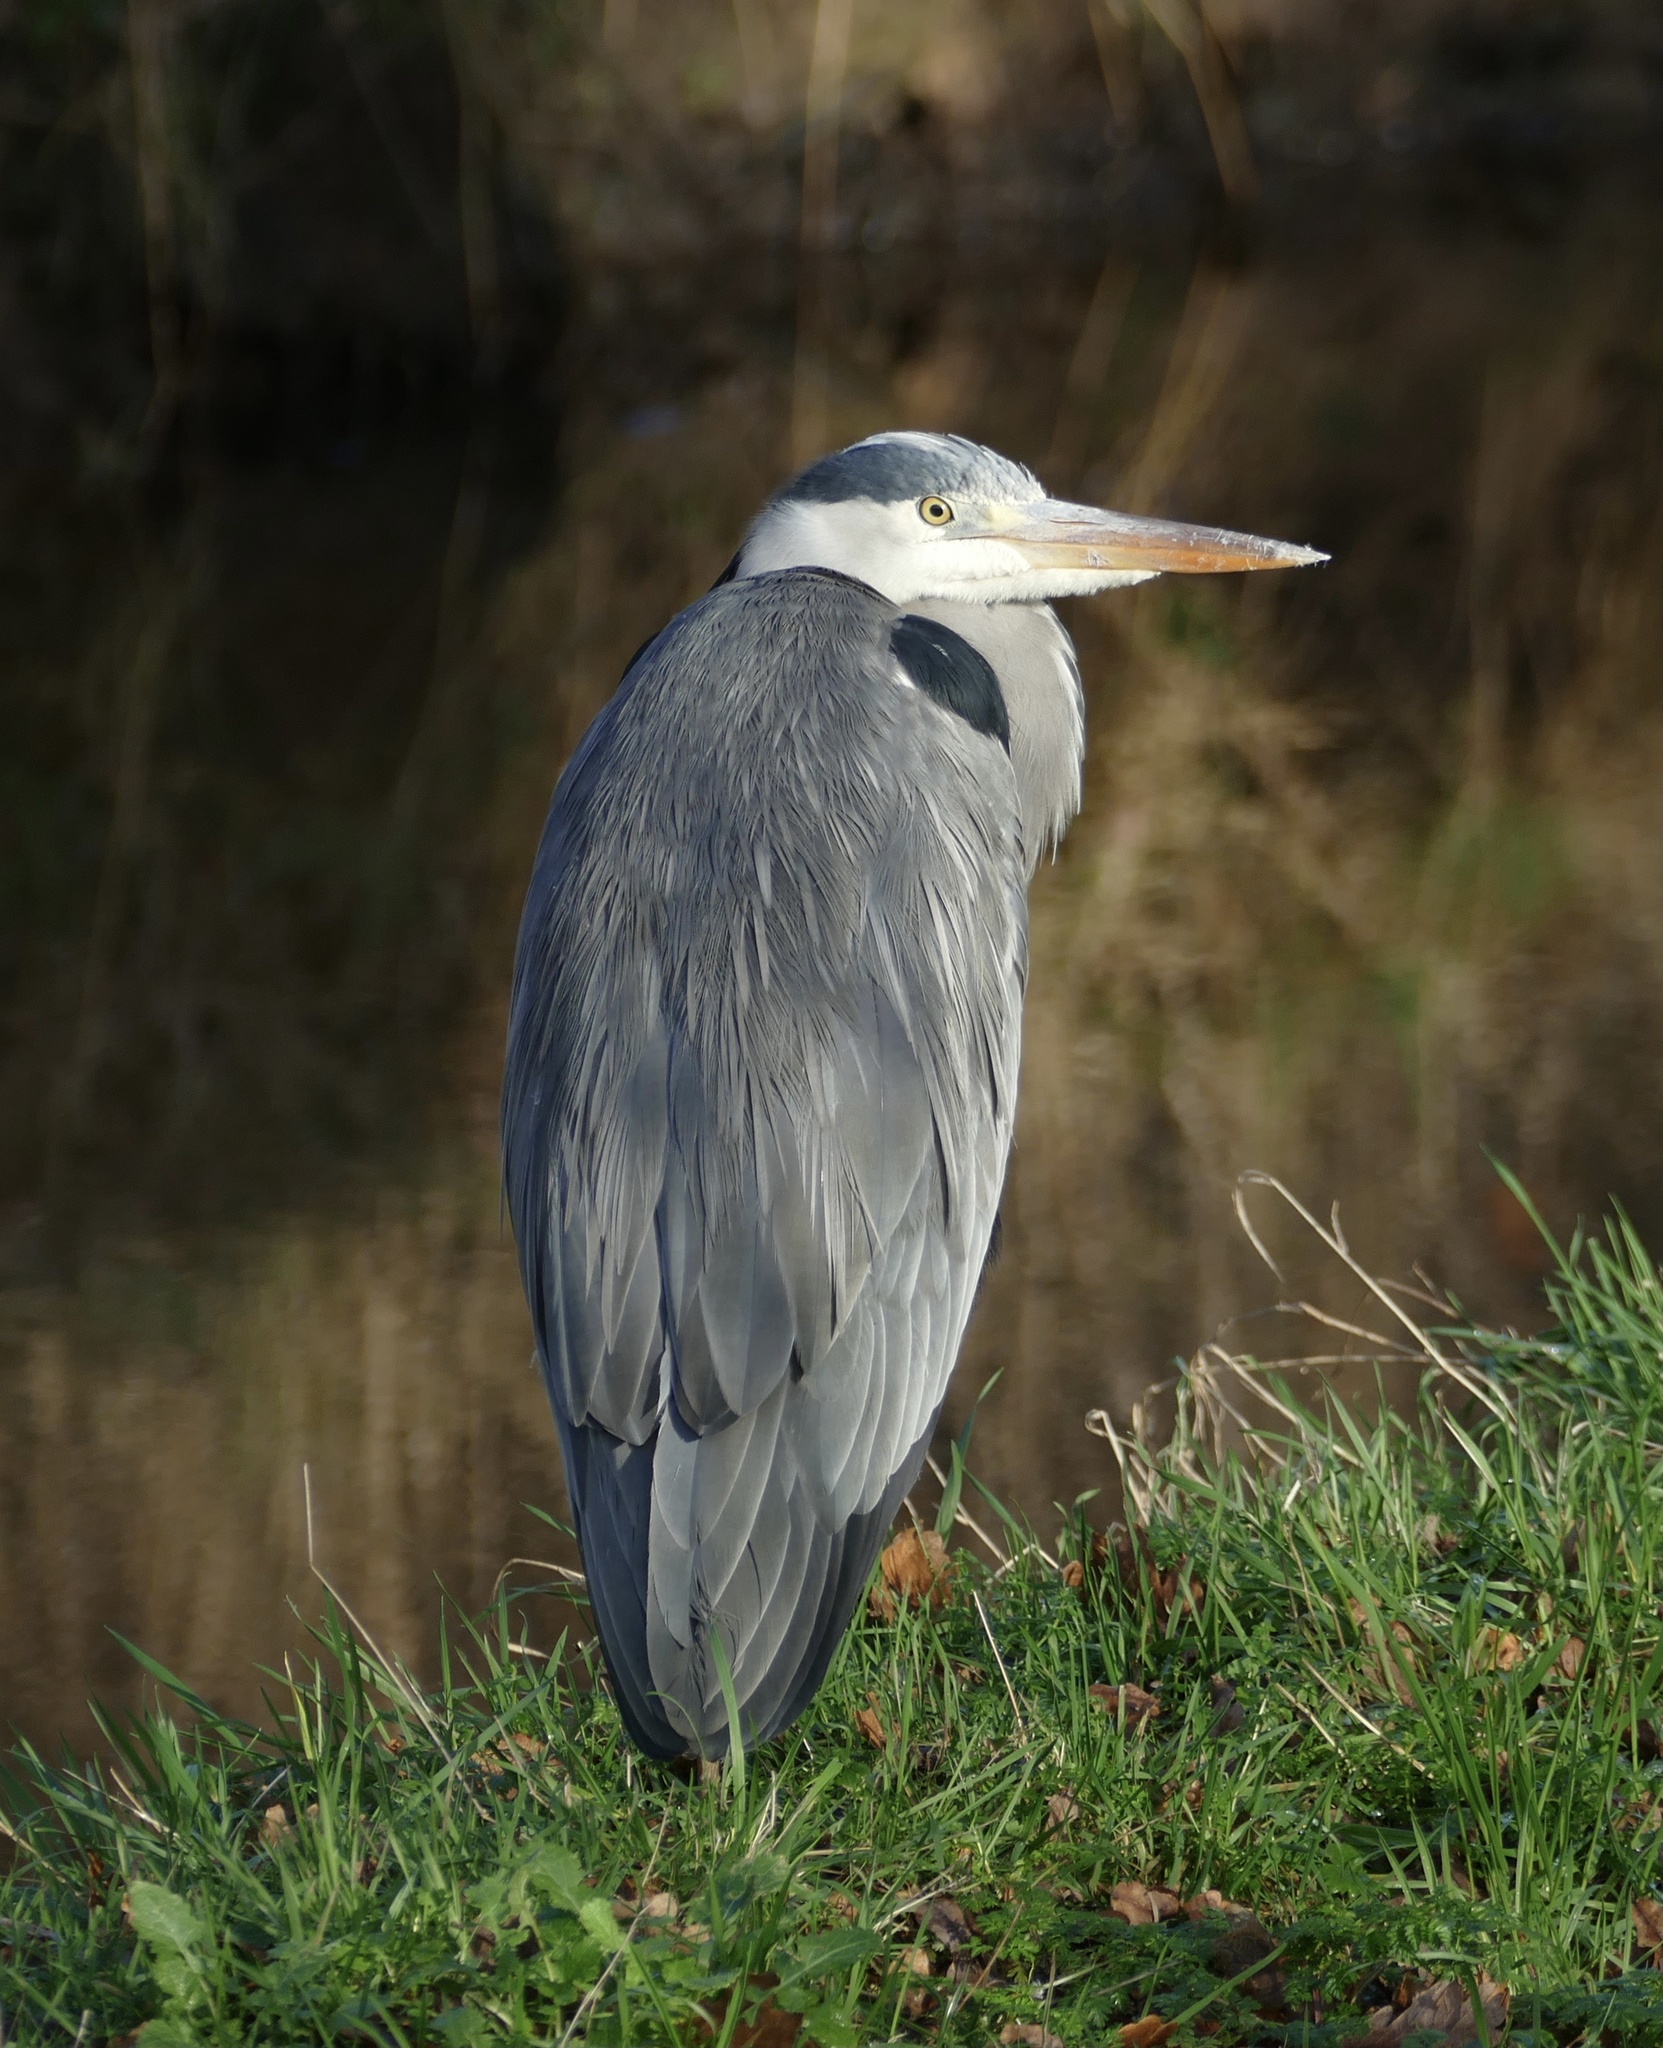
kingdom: Animalia
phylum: Chordata
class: Aves
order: Pelecaniformes
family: Ardeidae
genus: Ardea
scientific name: Ardea cinerea
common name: Grey heron
